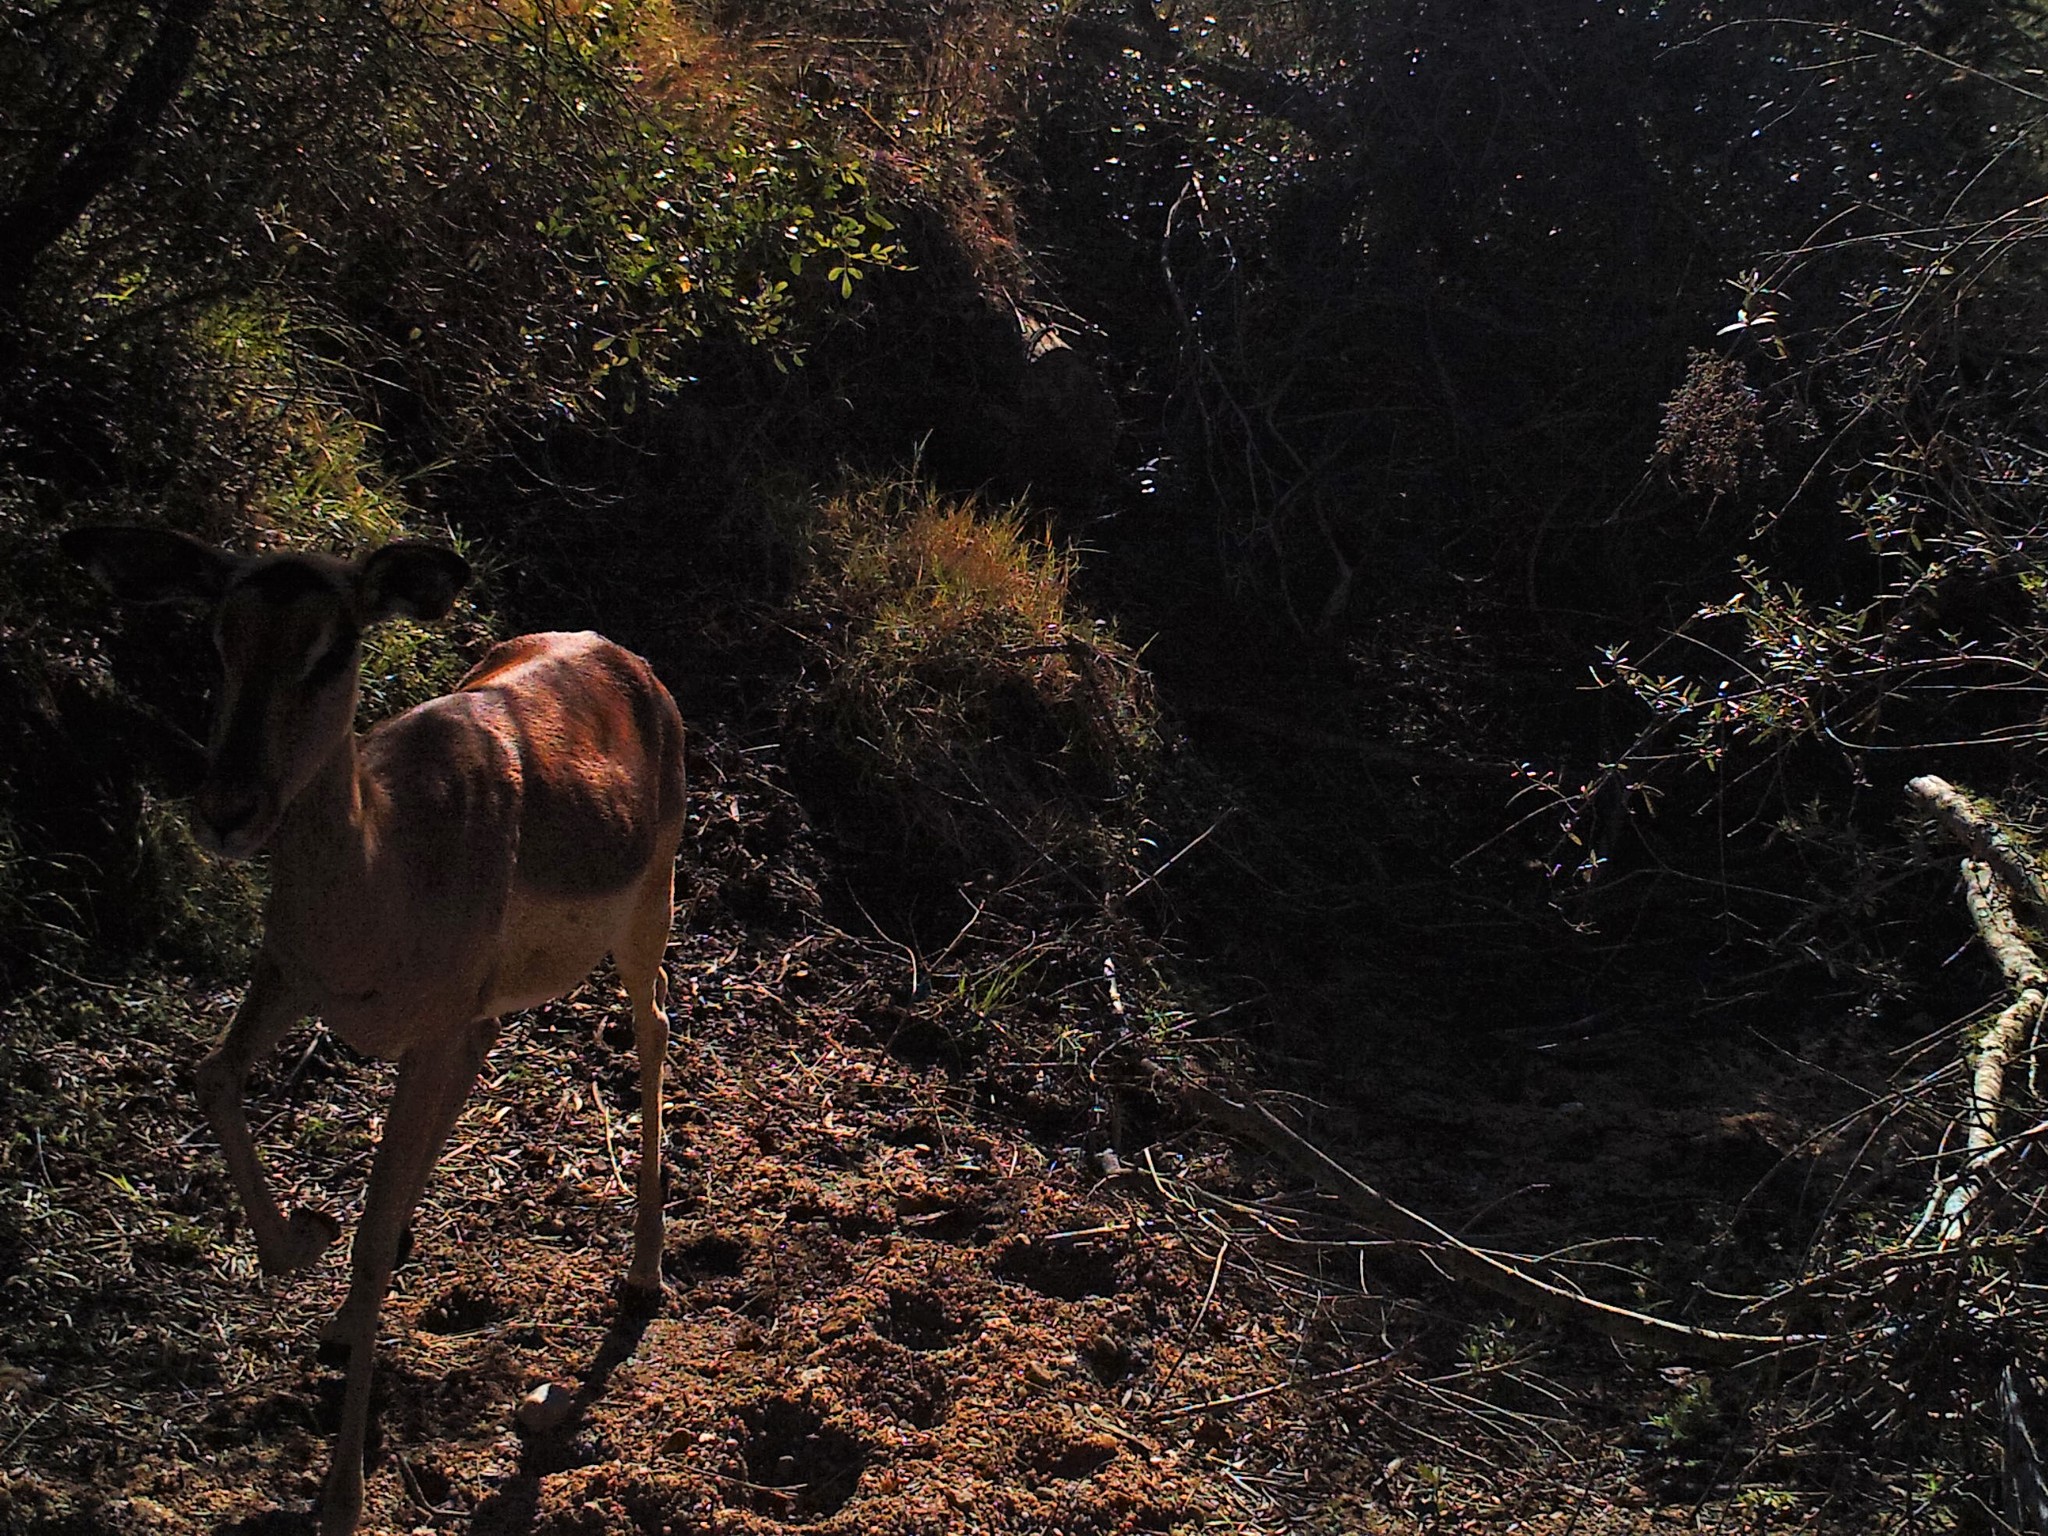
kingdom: Animalia
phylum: Chordata
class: Mammalia
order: Artiodactyla
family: Bovidae
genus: Aepyceros
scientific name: Aepyceros melampus
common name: Impala
